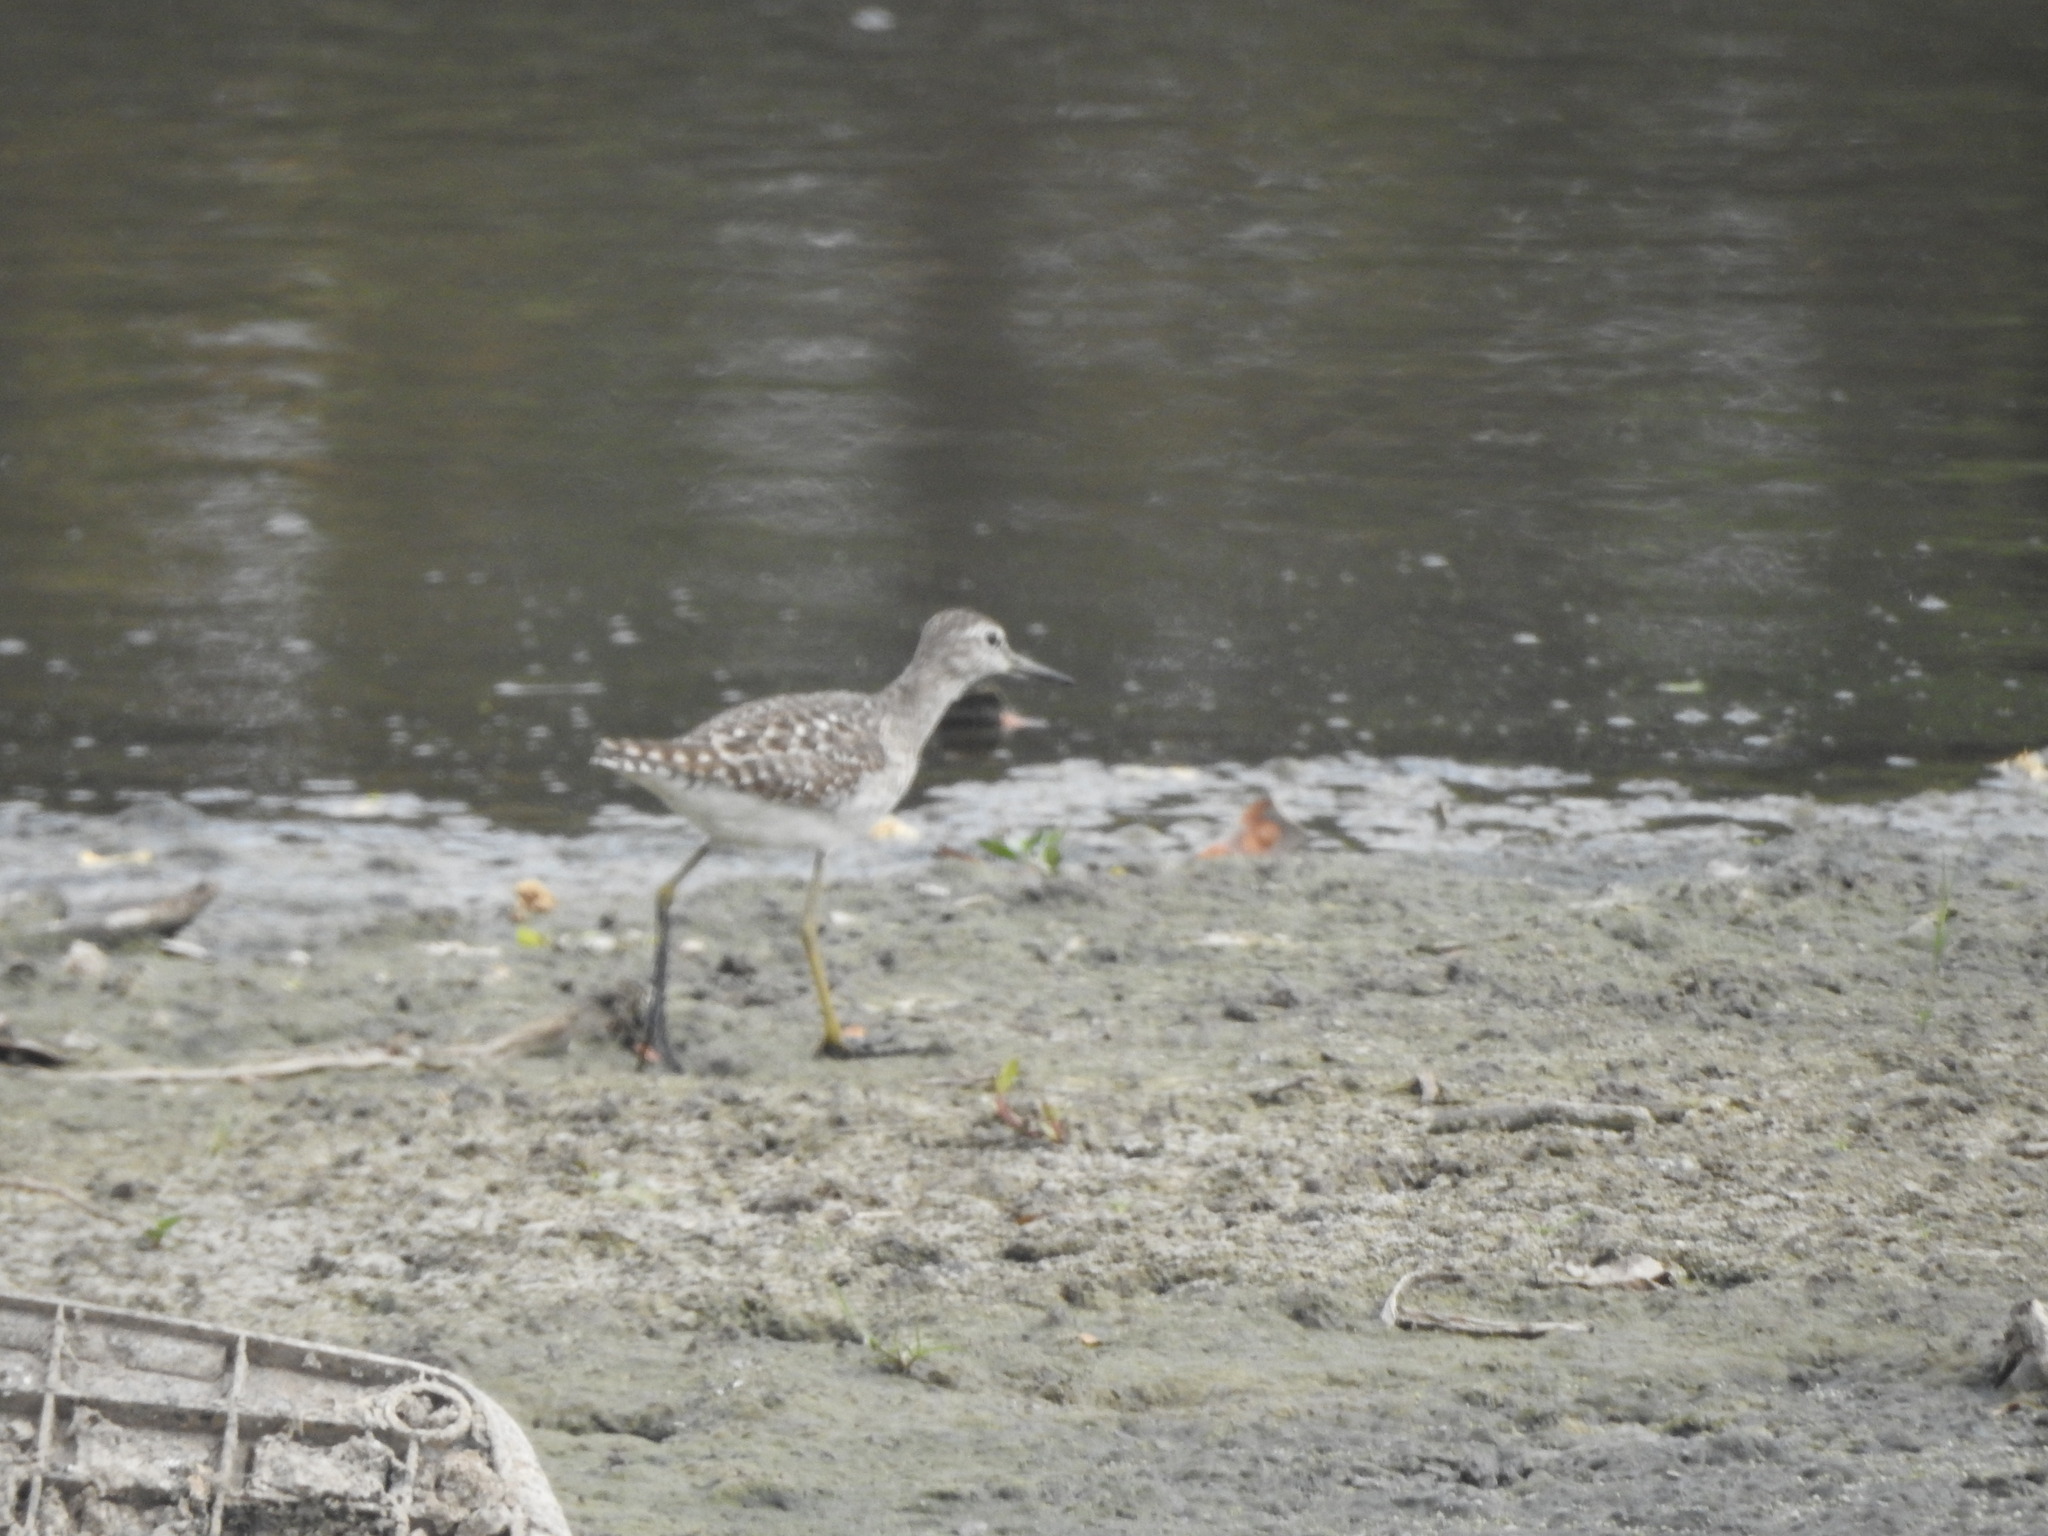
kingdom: Animalia
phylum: Chordata
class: Aves
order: Charadriiformes
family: Scolopacidae
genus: Tringa
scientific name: Tringa glareola
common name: Wood sandpiper
